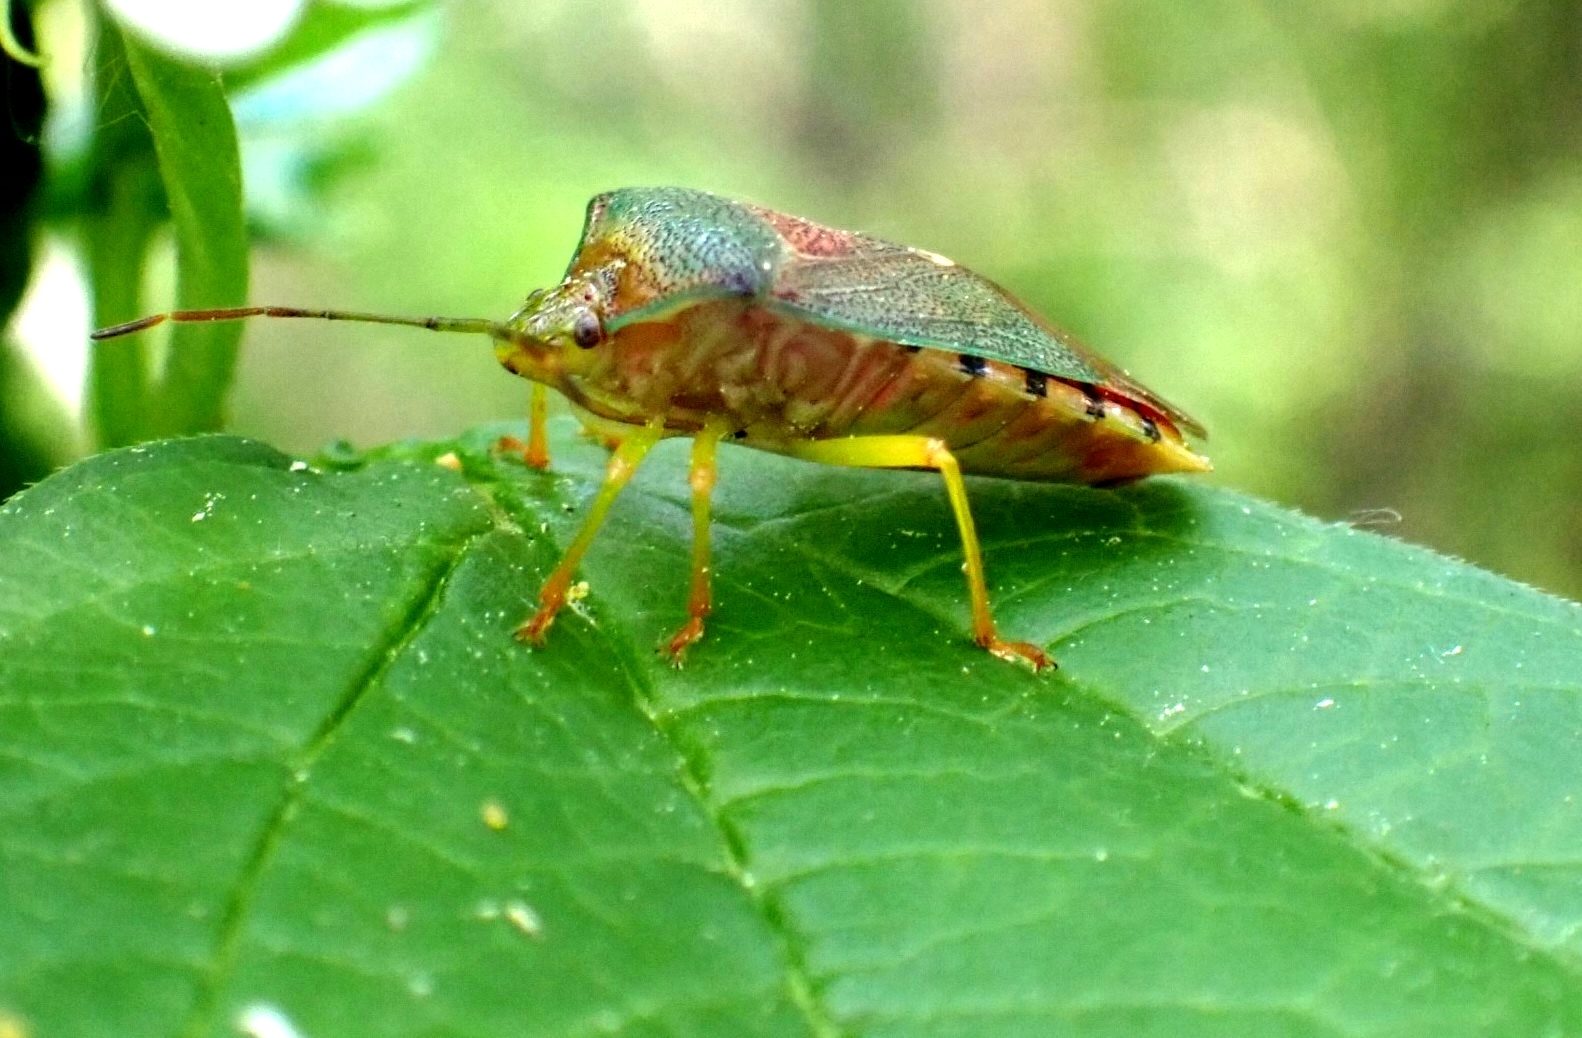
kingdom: Animalia
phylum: Arthropoda
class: Insecta
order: Hemiptera
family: Acanthosomatidae
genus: Acanthosoma
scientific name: Acanthosoma denticaudum
